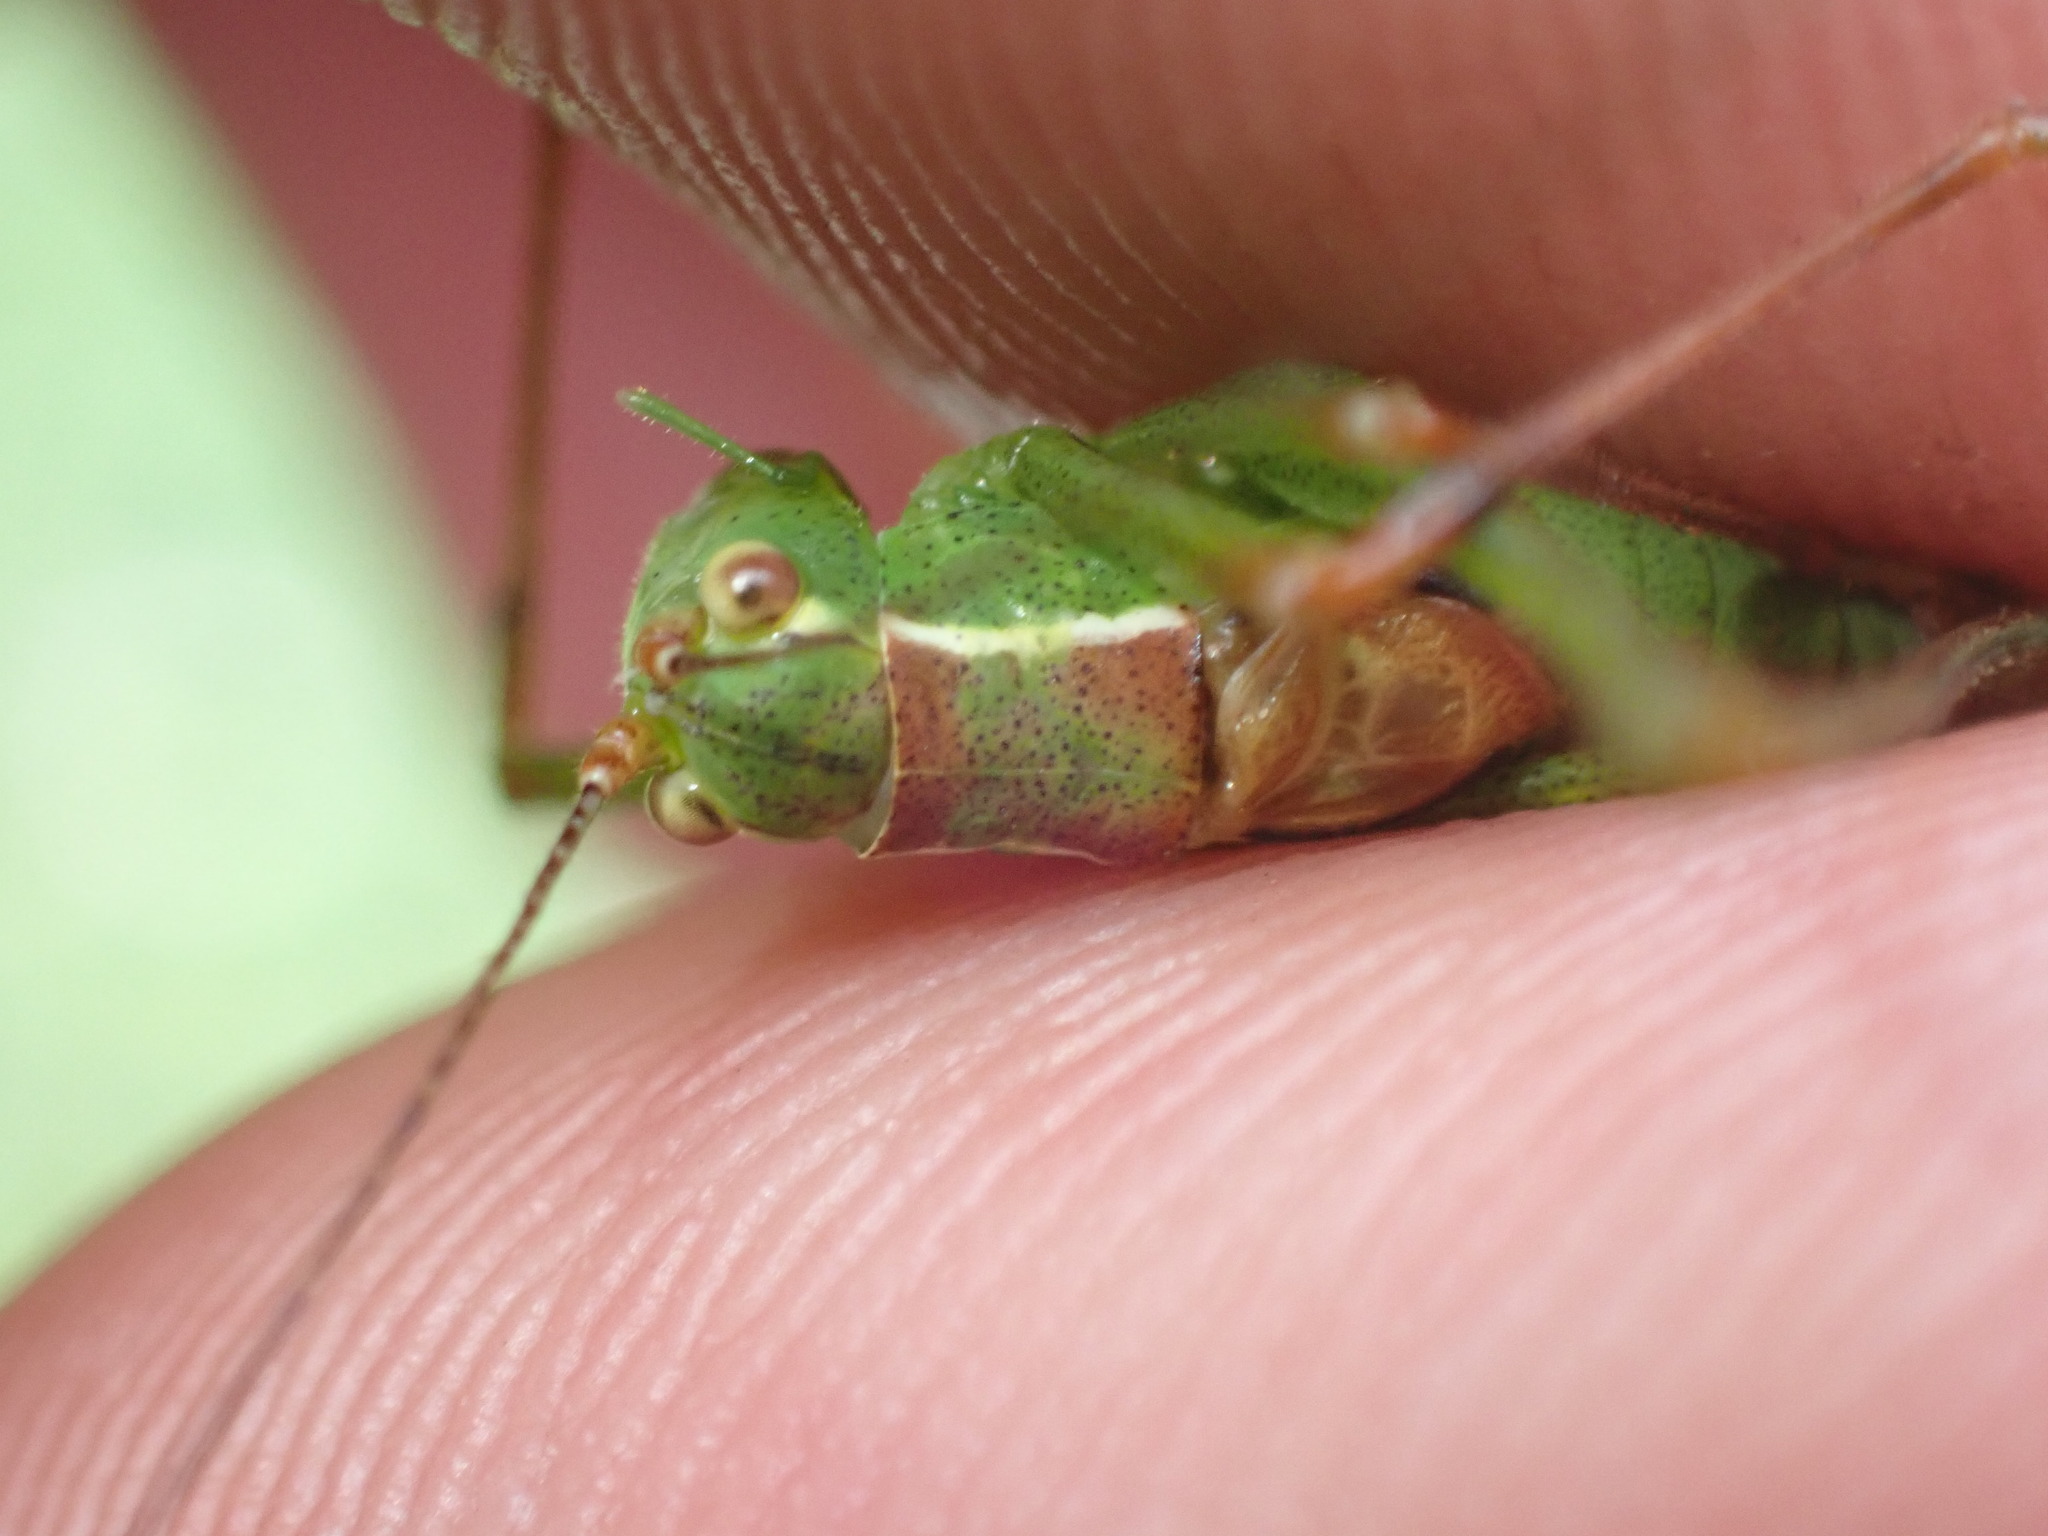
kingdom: Animalia
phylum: Arthropoda
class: Insecta
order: Orthoptera
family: Tettigoniidae
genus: Leptophyes
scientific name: Leptophyes punctatissima
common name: Speckled bush-cricket
